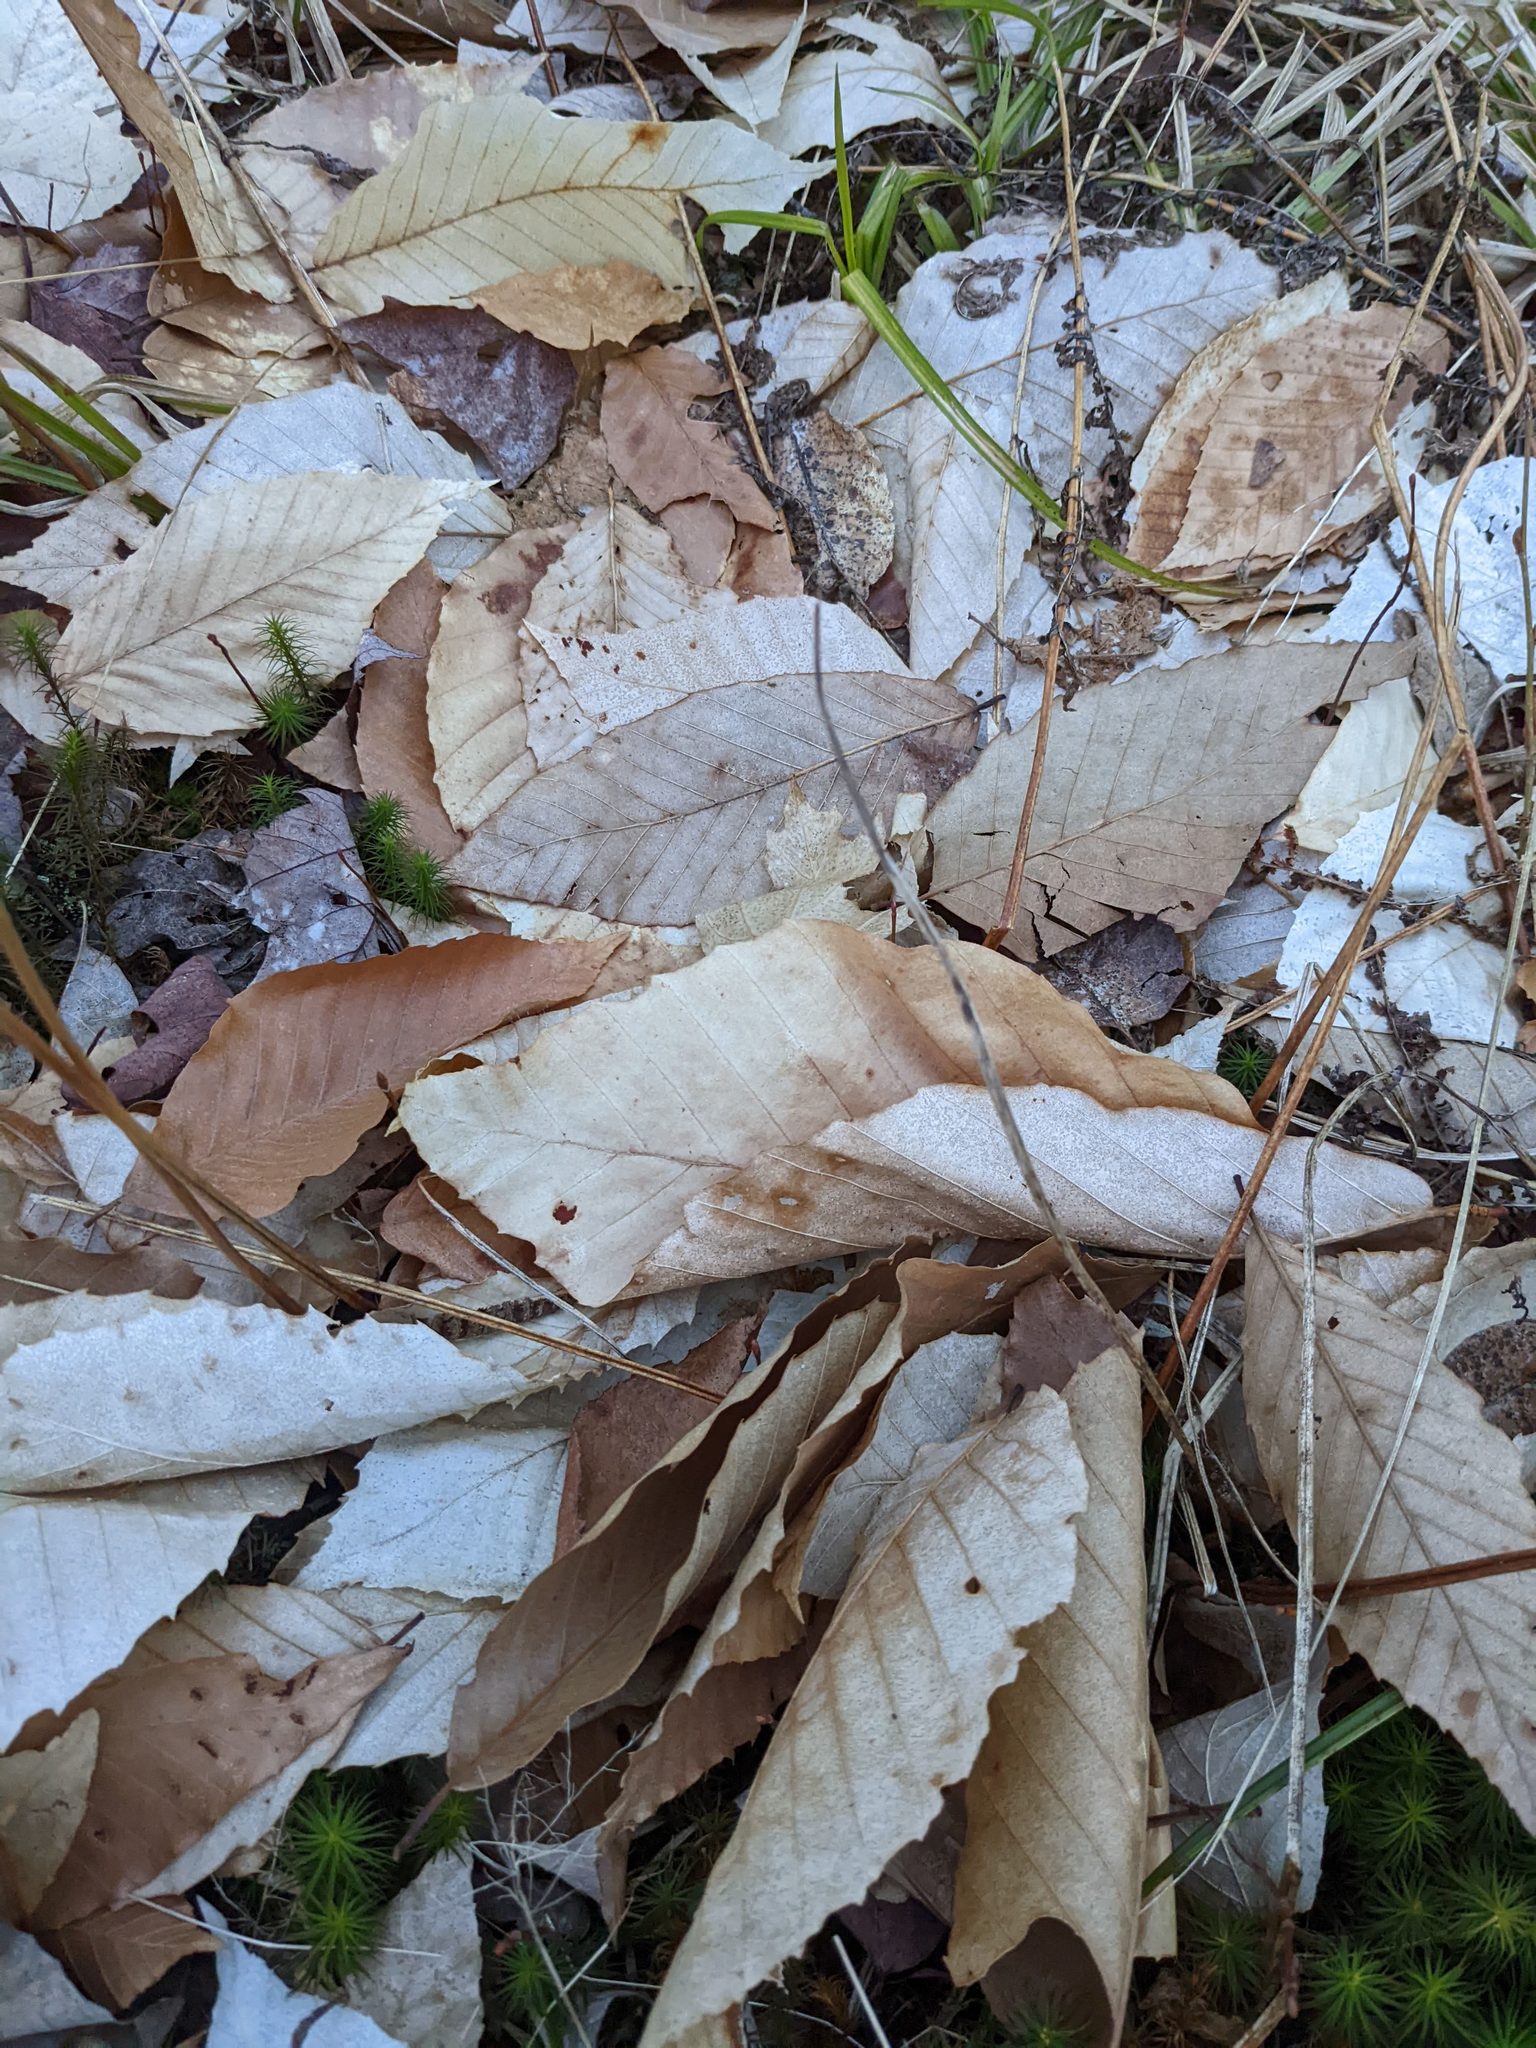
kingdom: Plantae
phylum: Tracheophyta
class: Magnoliopsida
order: Fagales
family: Fagaceae
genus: Fagus
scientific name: Fagus grandifolia
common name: American beech
